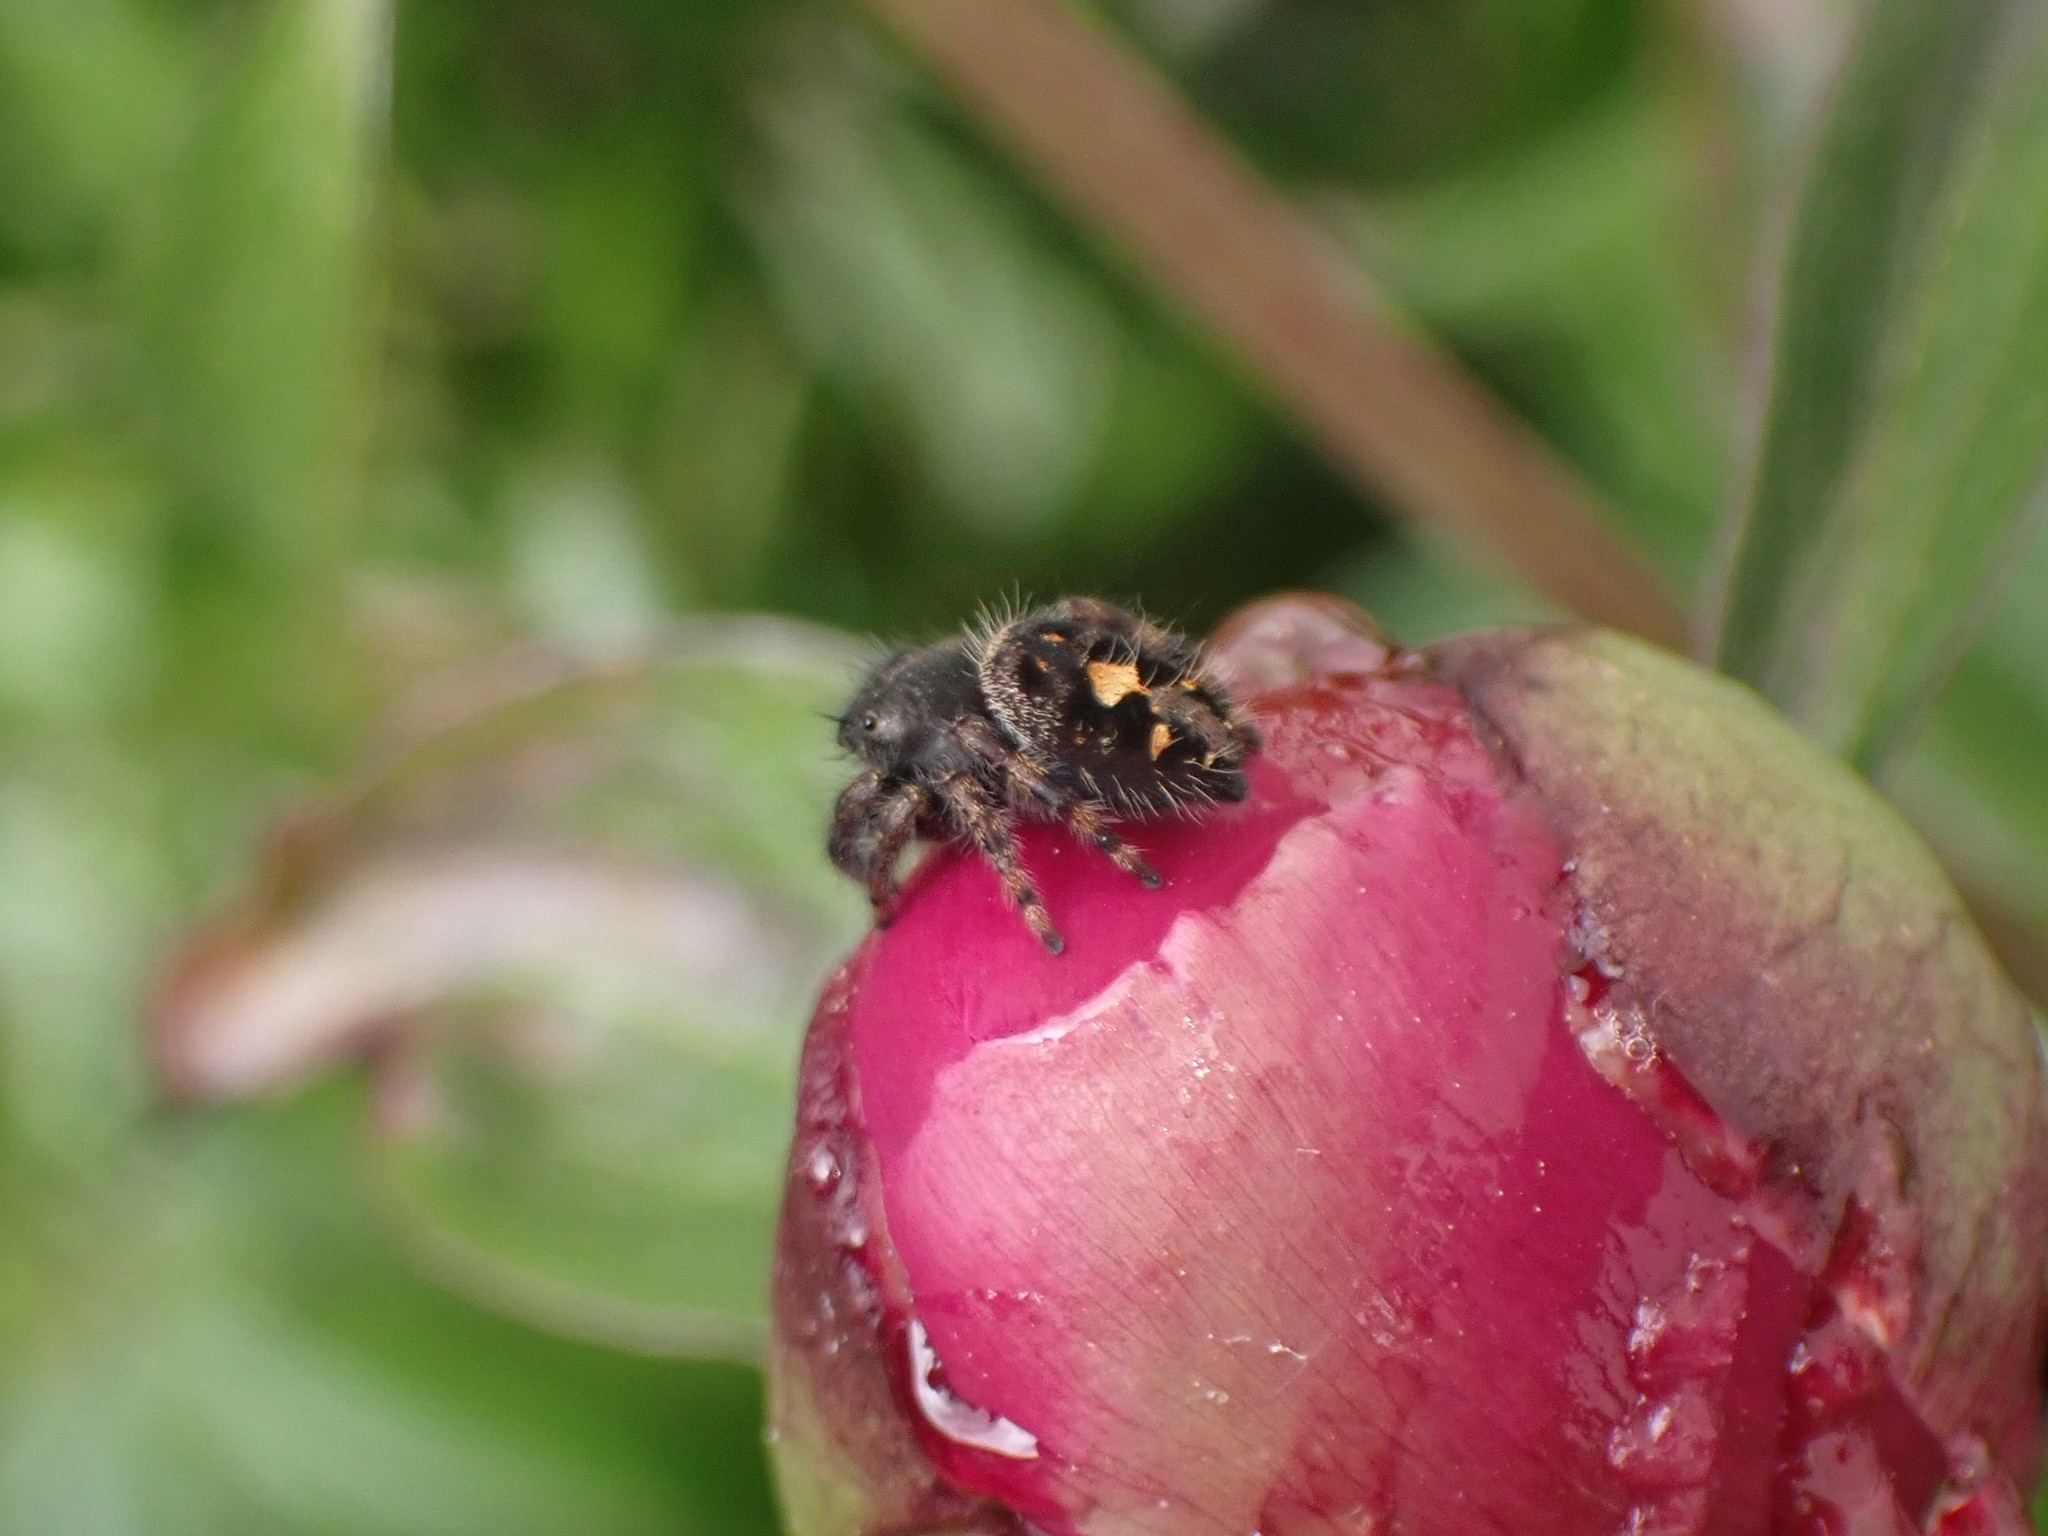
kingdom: Animalia
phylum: Arthropoda
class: Arachnida
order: Araneae
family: Salticidae
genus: Phidippus
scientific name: Phidippus audax
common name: Bold jumper
